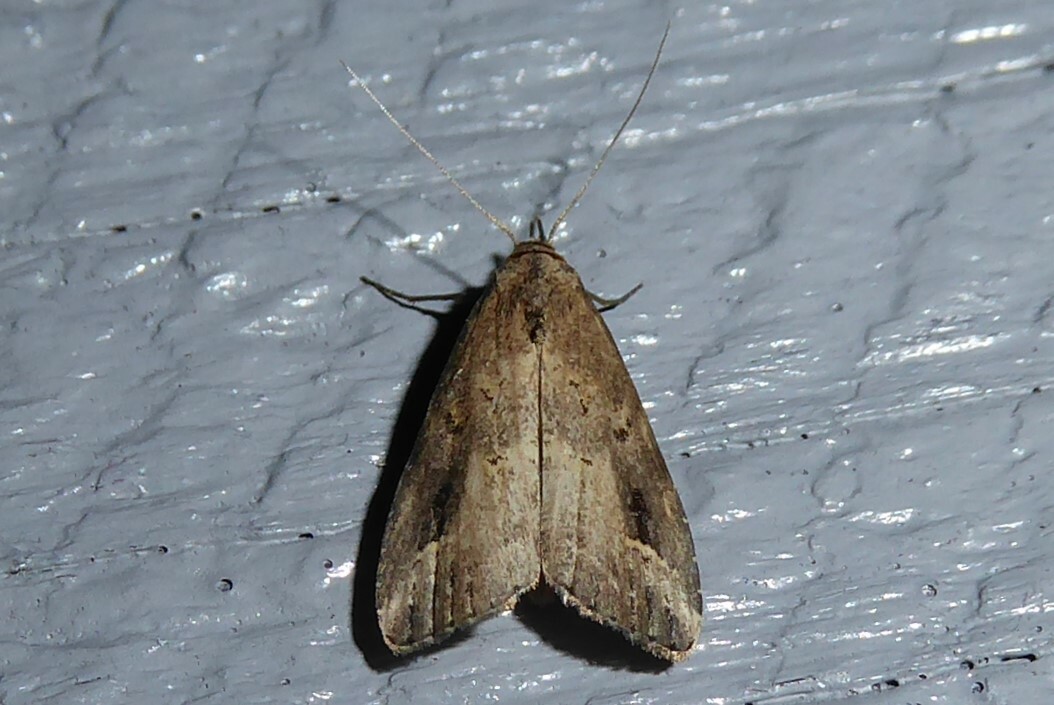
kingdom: Animalia
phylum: Arthropoda
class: Insecta
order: Lepidoptera
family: Erebidae
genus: Schrankia
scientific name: Schrankia costaestrigalis
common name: Pinion-streaked snout
